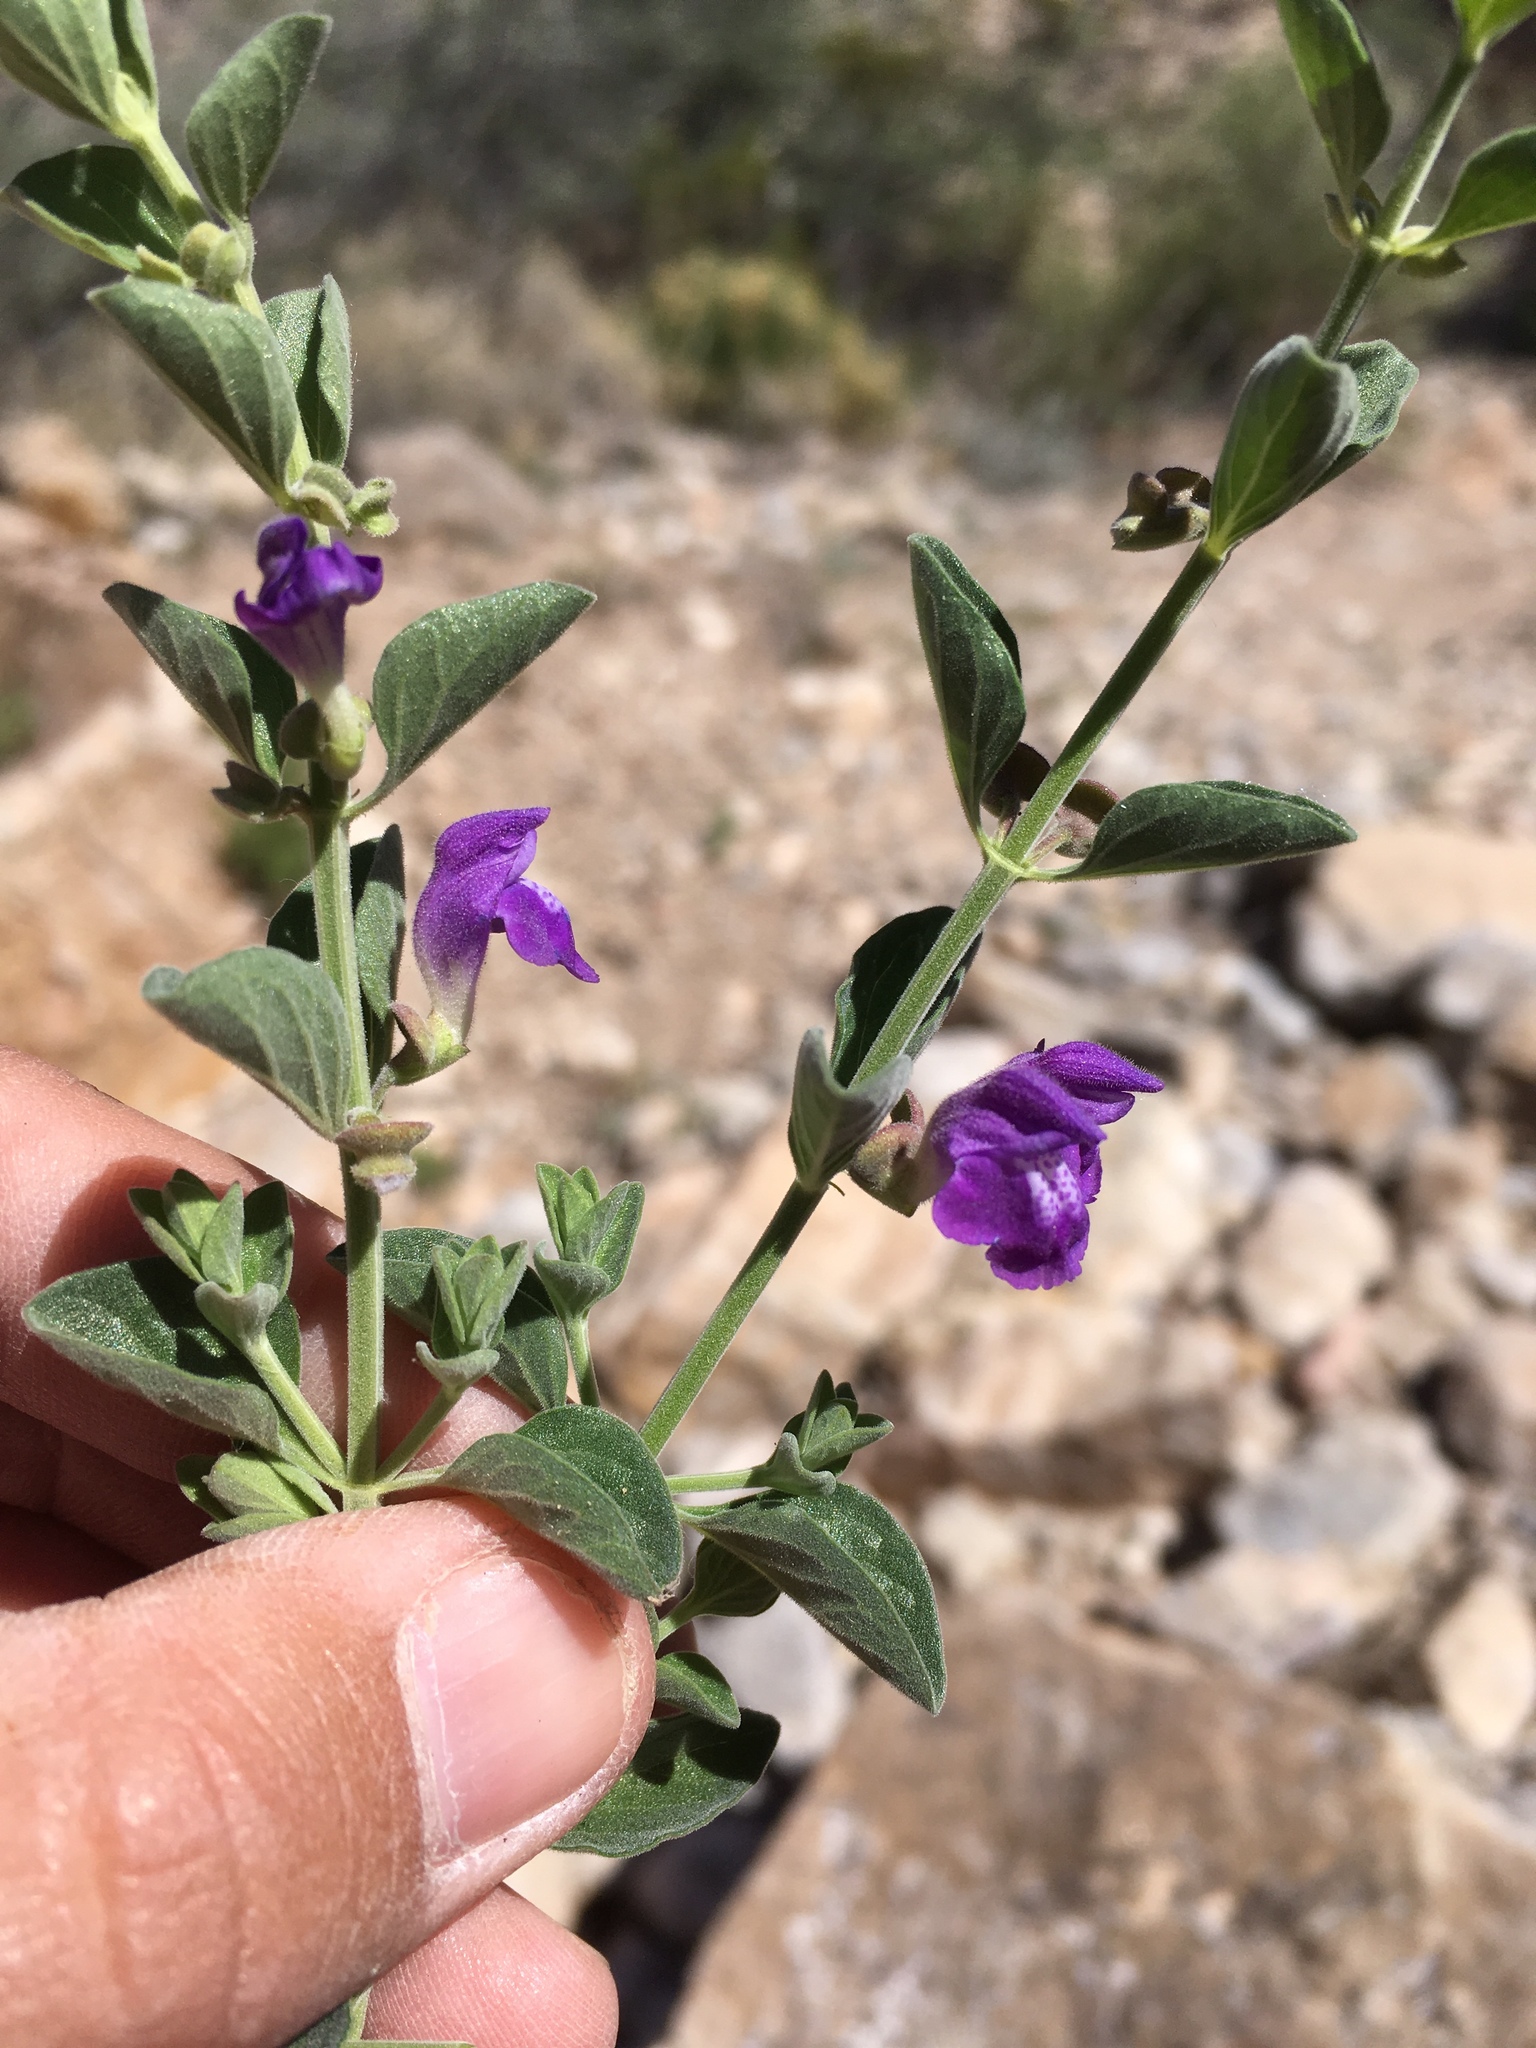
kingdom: Plantae
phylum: Tracheophyta
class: Magnoliopsida
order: Lamiales
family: Lamiaceae
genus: Scutellaria
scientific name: Scutellaria potosina
